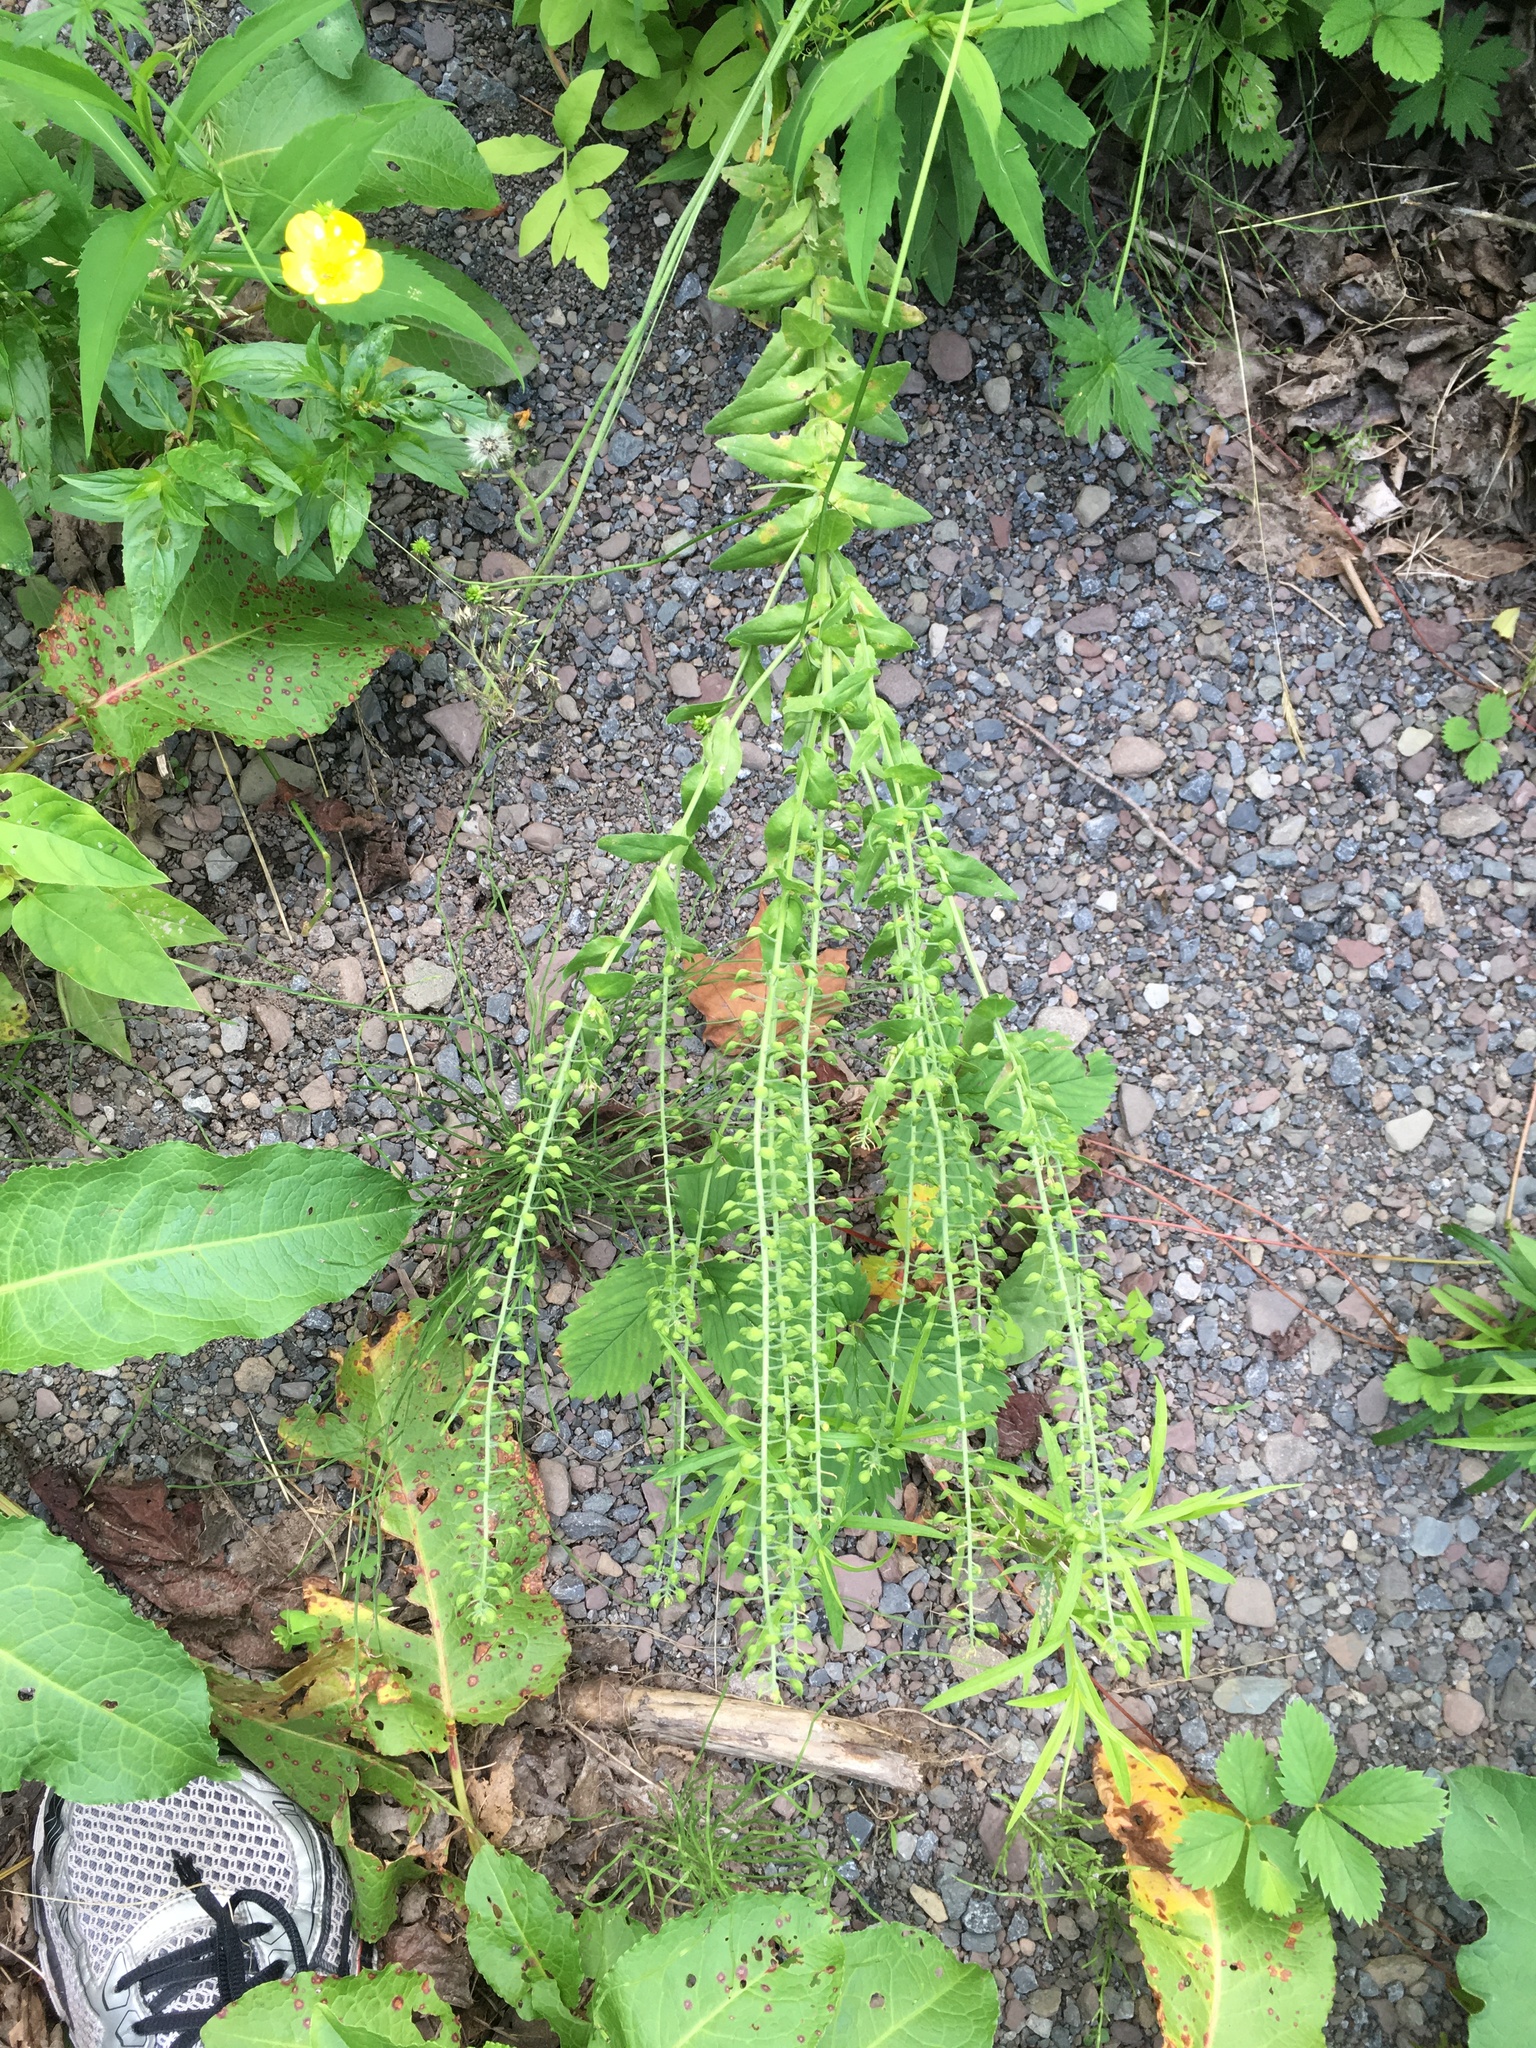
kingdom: Plantae
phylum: Tracheophyta
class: Magnoliopsida
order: Brassicales
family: Brassicaceae
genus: Lepidium
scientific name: Lepidium campestre
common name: Field pepperwort
